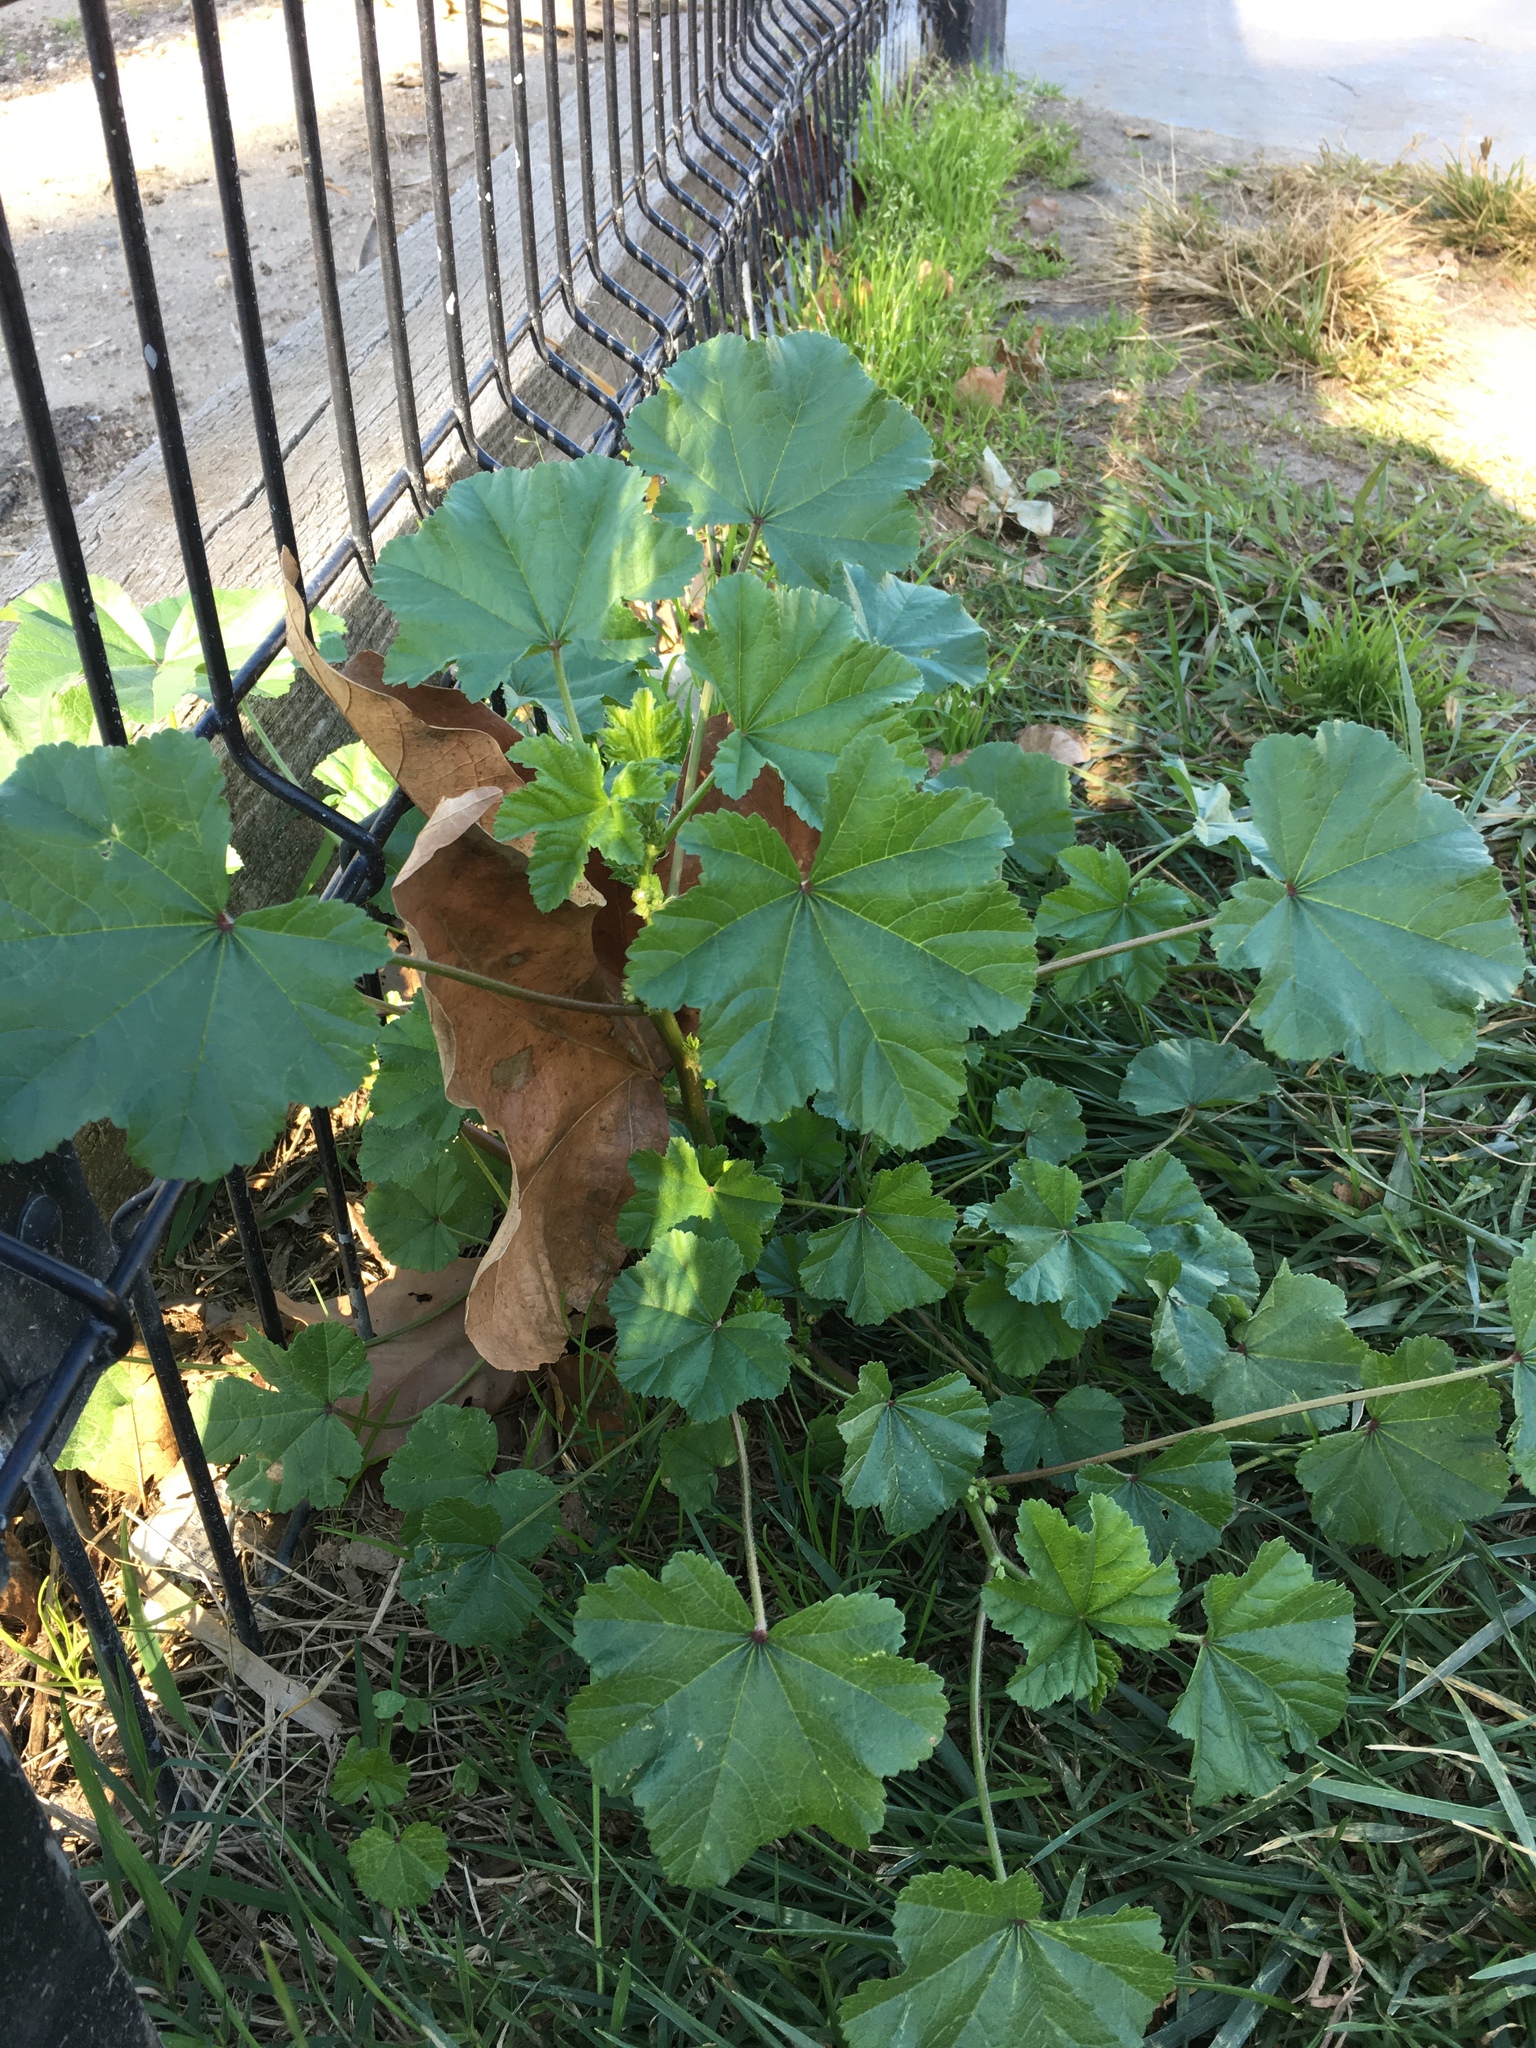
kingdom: Plantae
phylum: Tracheophyta
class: Magnoliopsida
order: Malvales
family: Malvaceae
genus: Malva
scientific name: Malva parviflora
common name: Least mallow
